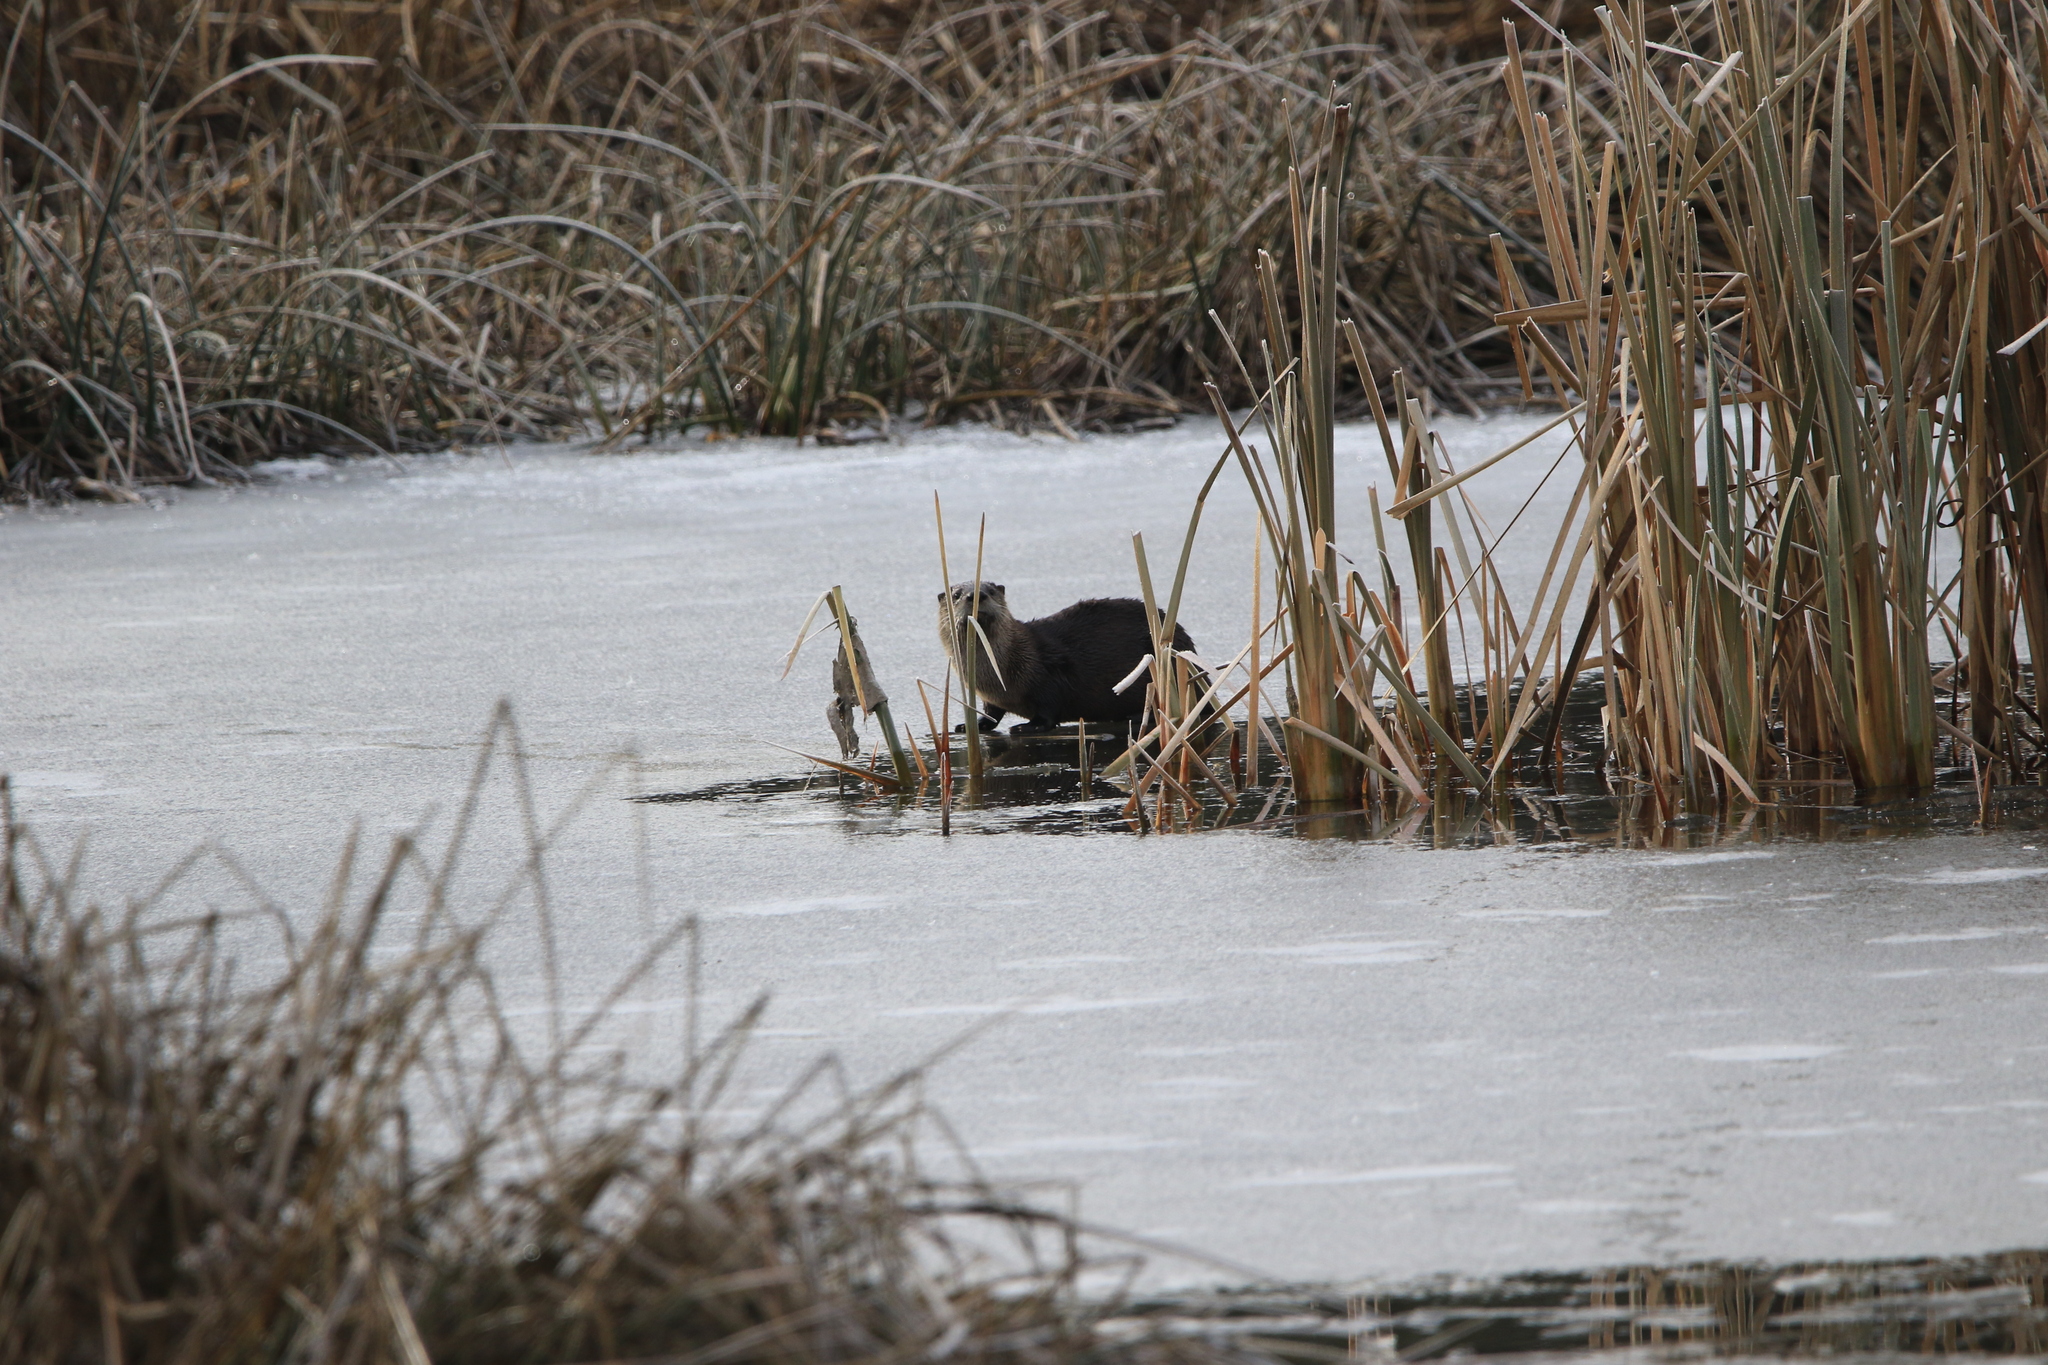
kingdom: Animalia
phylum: Chordata
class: Mammalia
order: Carnivora
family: Mustelidae
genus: Lontra
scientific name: Lontra canadensis
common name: North american river otter
